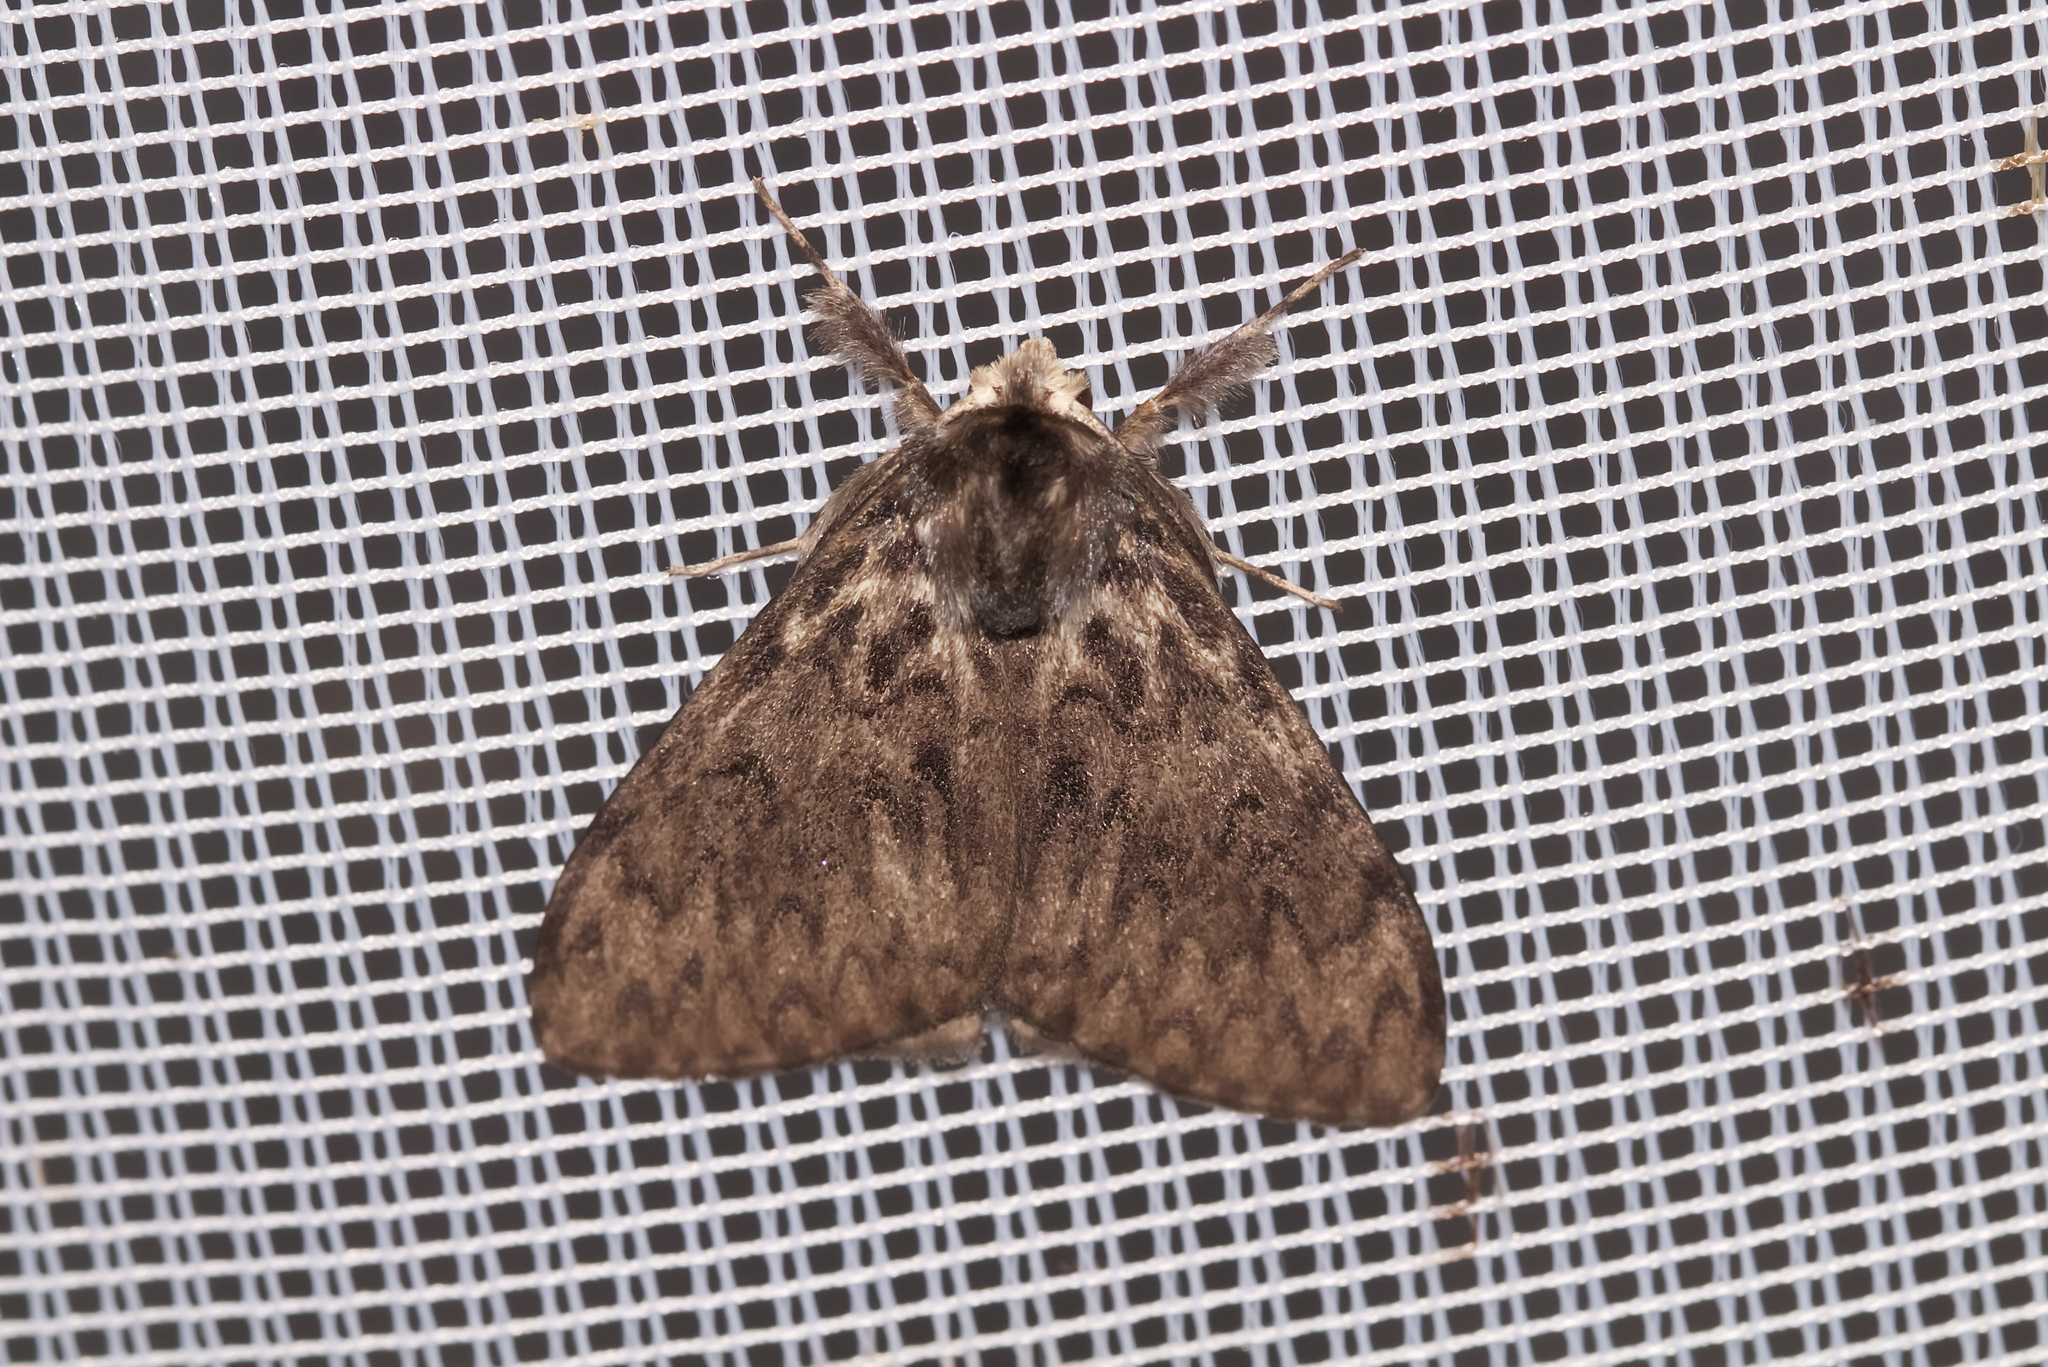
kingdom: Animalia
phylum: Arthropoda
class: Insecta
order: Lepidoptera
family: Erebidae
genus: Lymantria
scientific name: Lymantria monacha
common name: Black arches
